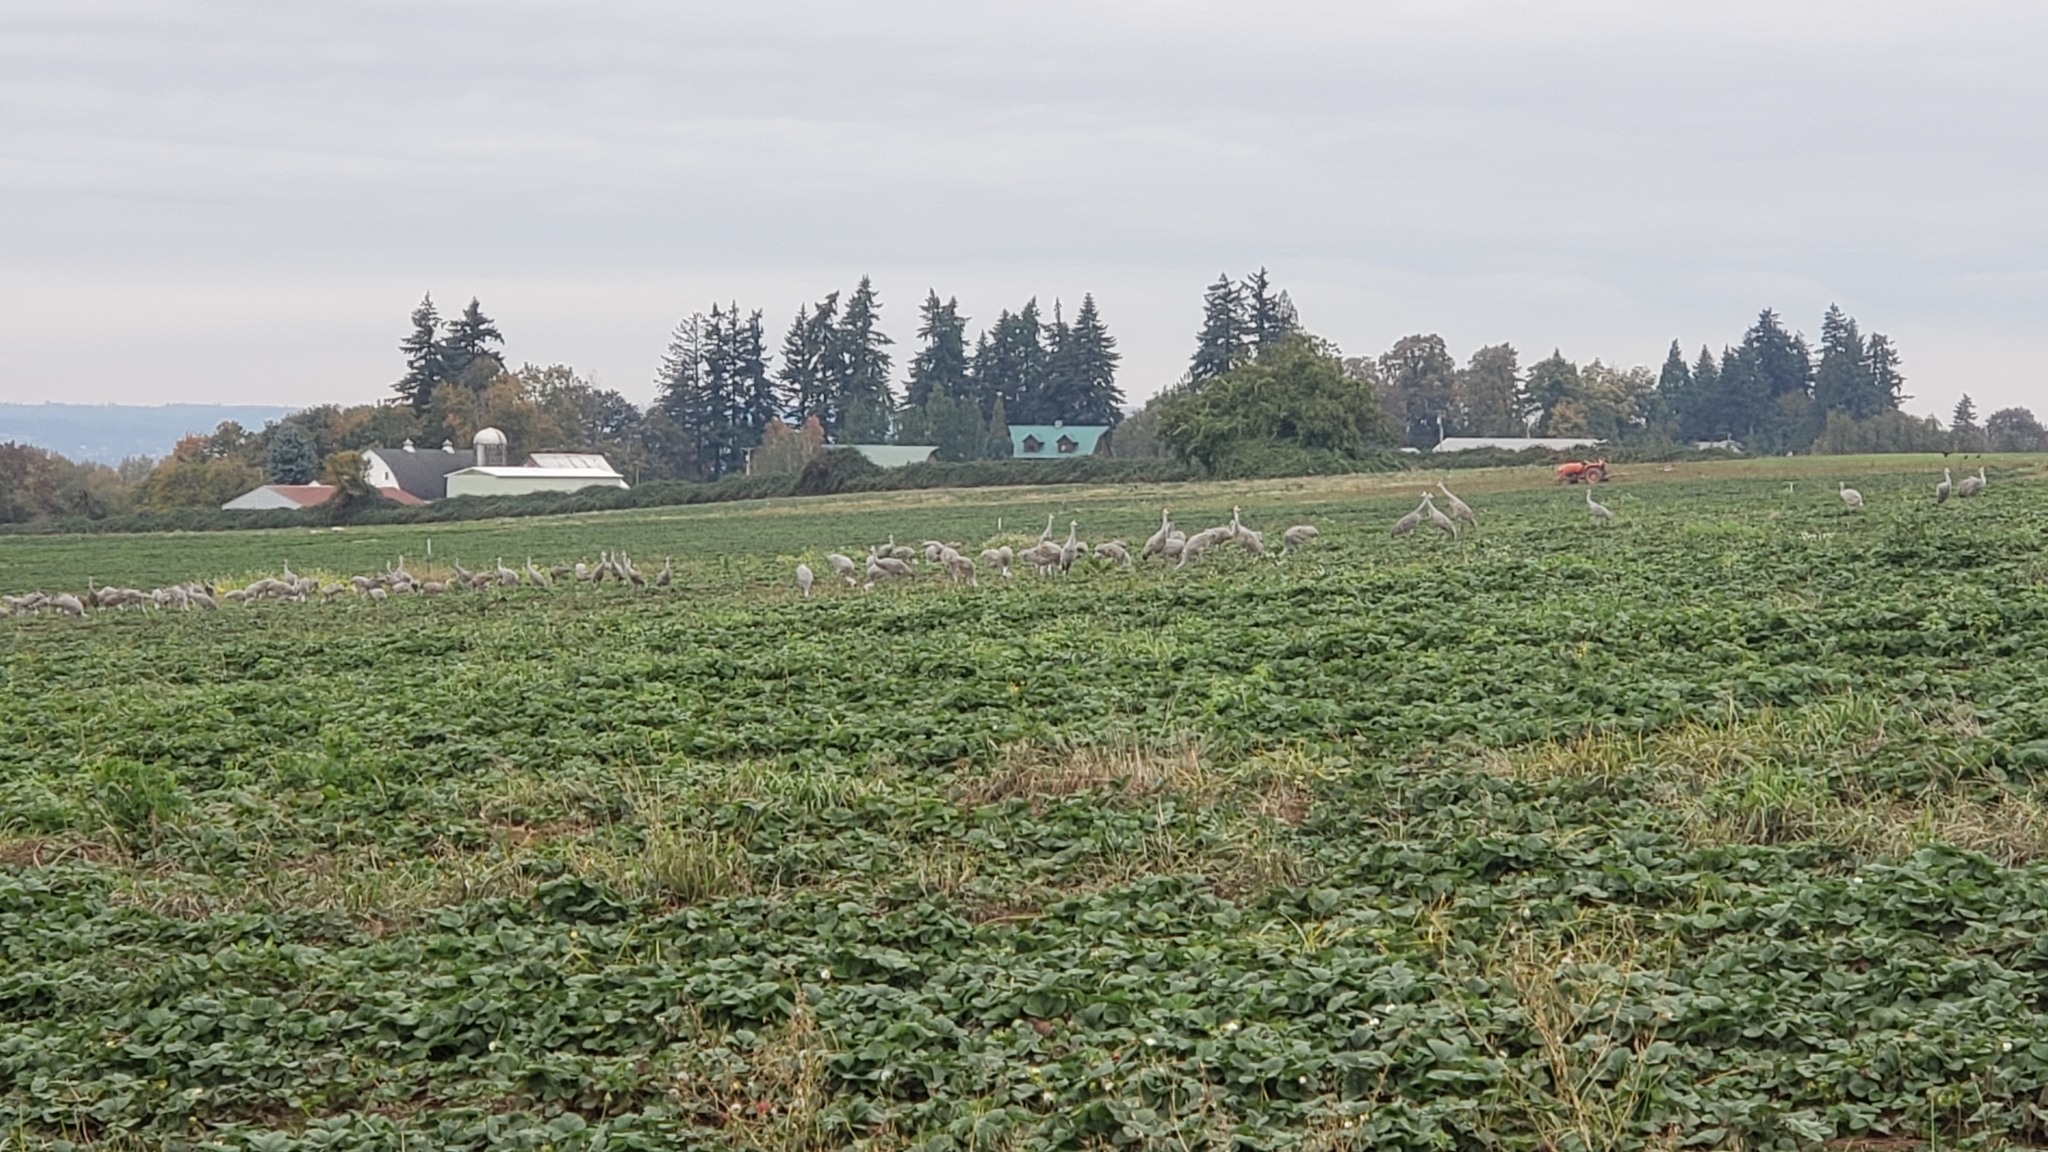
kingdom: Animalia
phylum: Chordata
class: Aves
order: Gruiformes
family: Gruidae
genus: Grus
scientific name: Grus canadensis
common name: Sandhill crane
